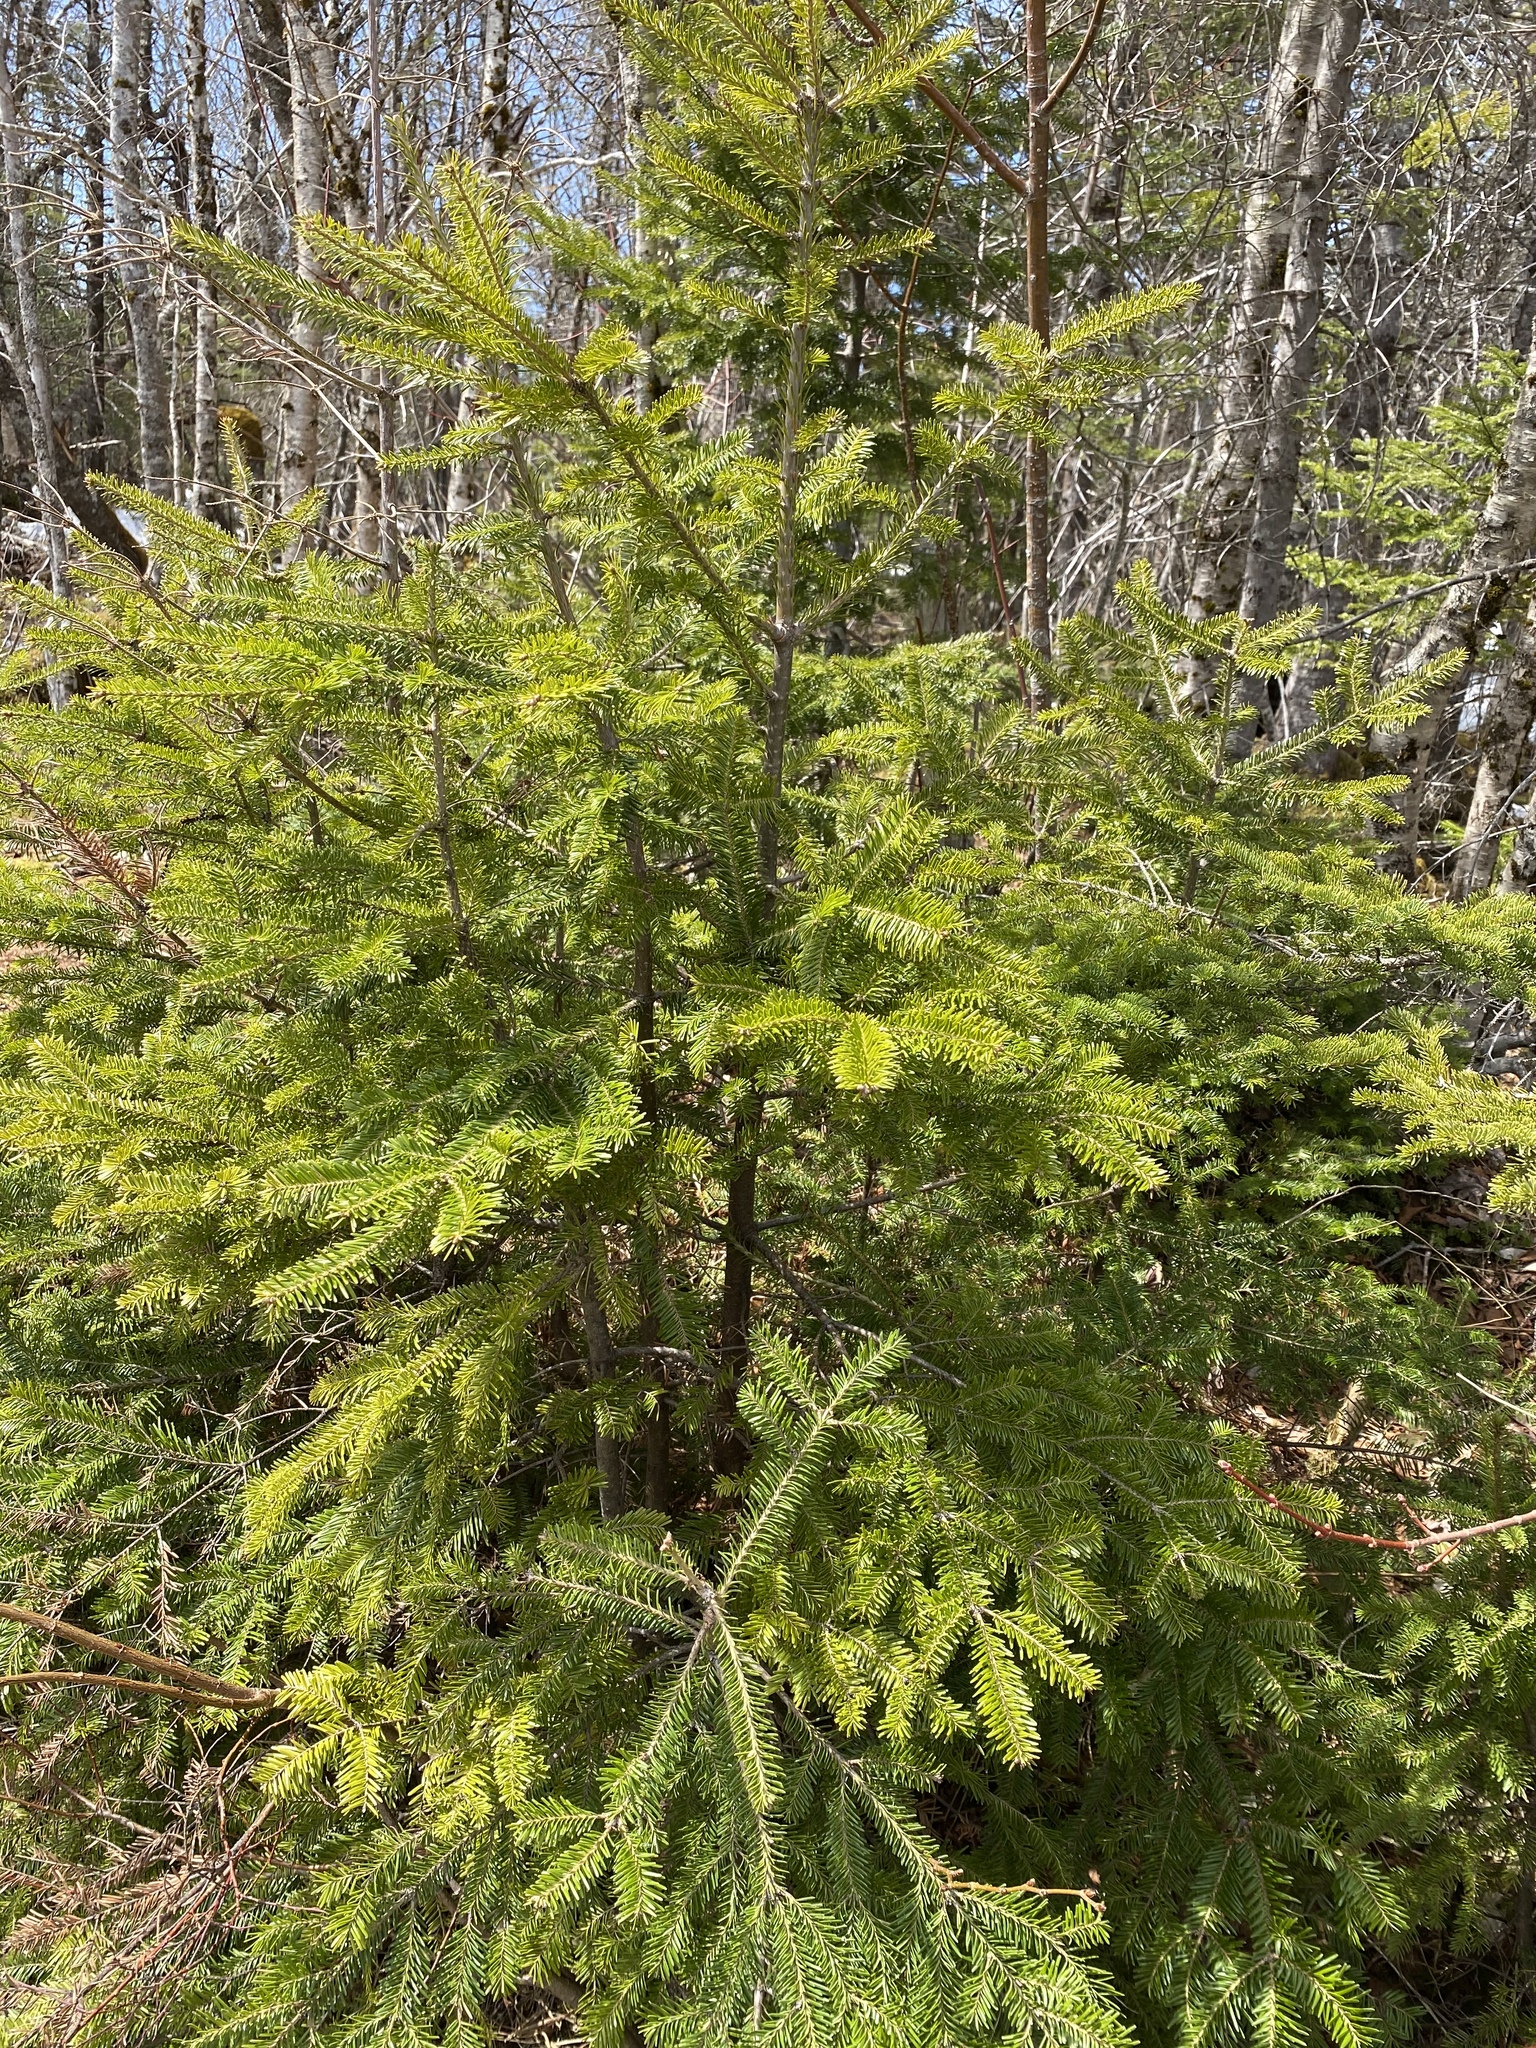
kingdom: Plantae
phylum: Tracheophyta
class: Pinopsida
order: Pinales
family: Pinaceae
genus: Abies
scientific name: Abies balsamea
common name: Balsam fir
